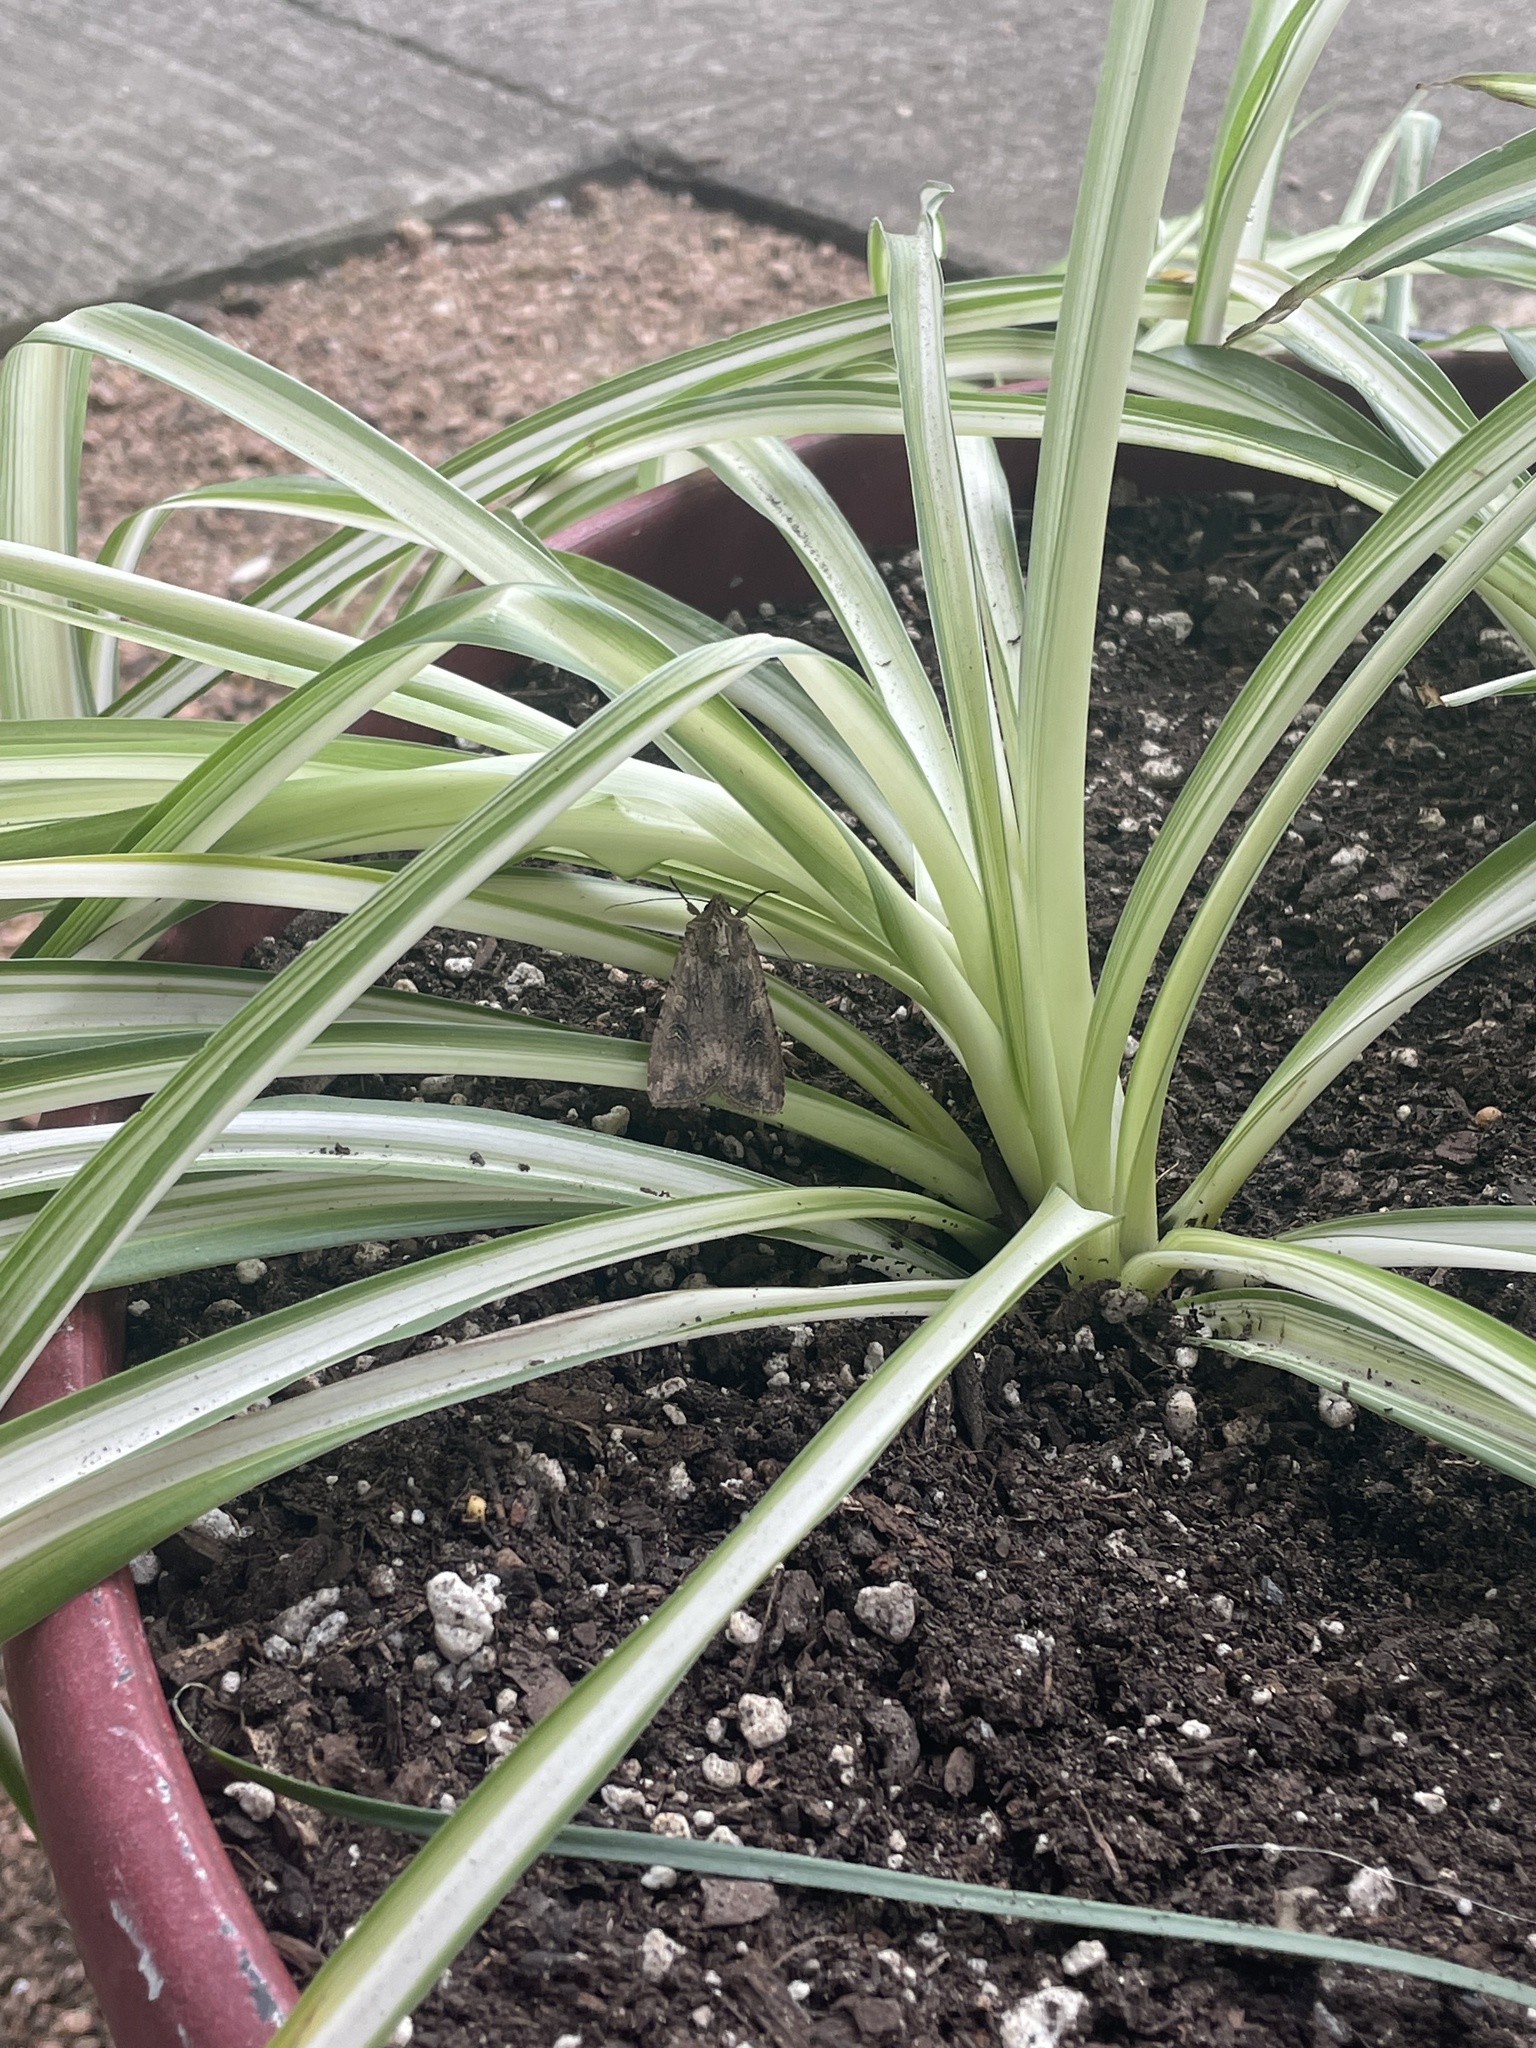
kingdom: Animalia
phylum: Arthropoda
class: Insecta
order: Lepidoptera
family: Noctuidae
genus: Peridroma
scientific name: Peridroma saucia
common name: Pearly underwing
